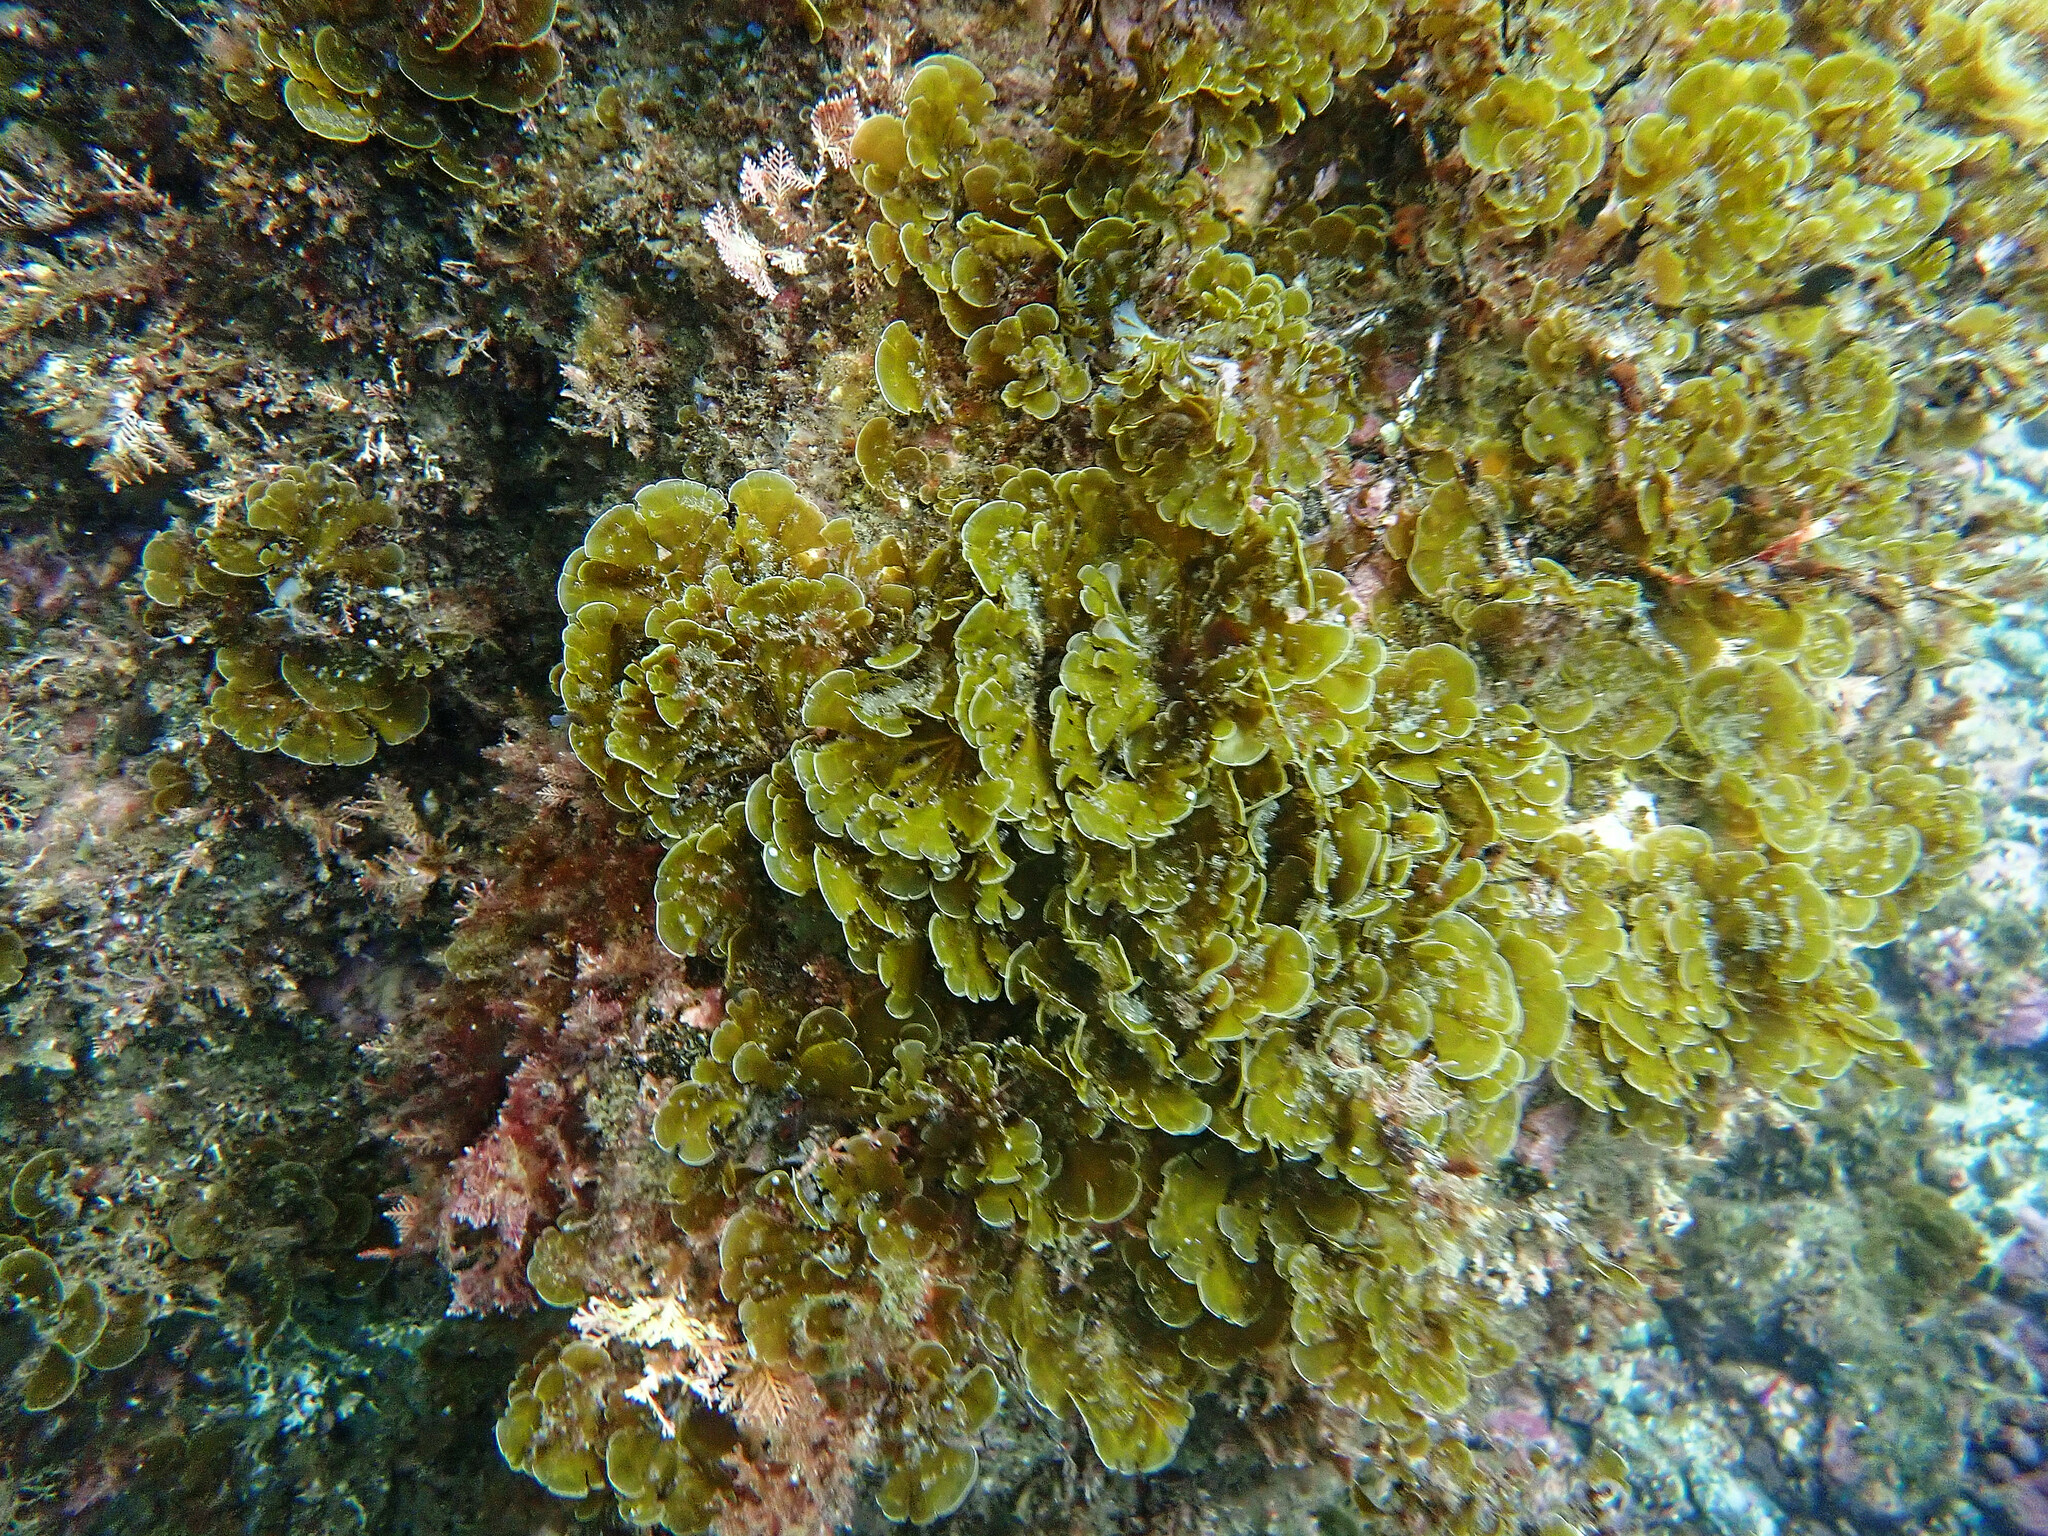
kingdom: Chromista
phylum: Ochrophyta
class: Phaeophyceae
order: Dictyotales
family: Dictyotaceae
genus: Zonaria
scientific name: Zonaria farlowii
